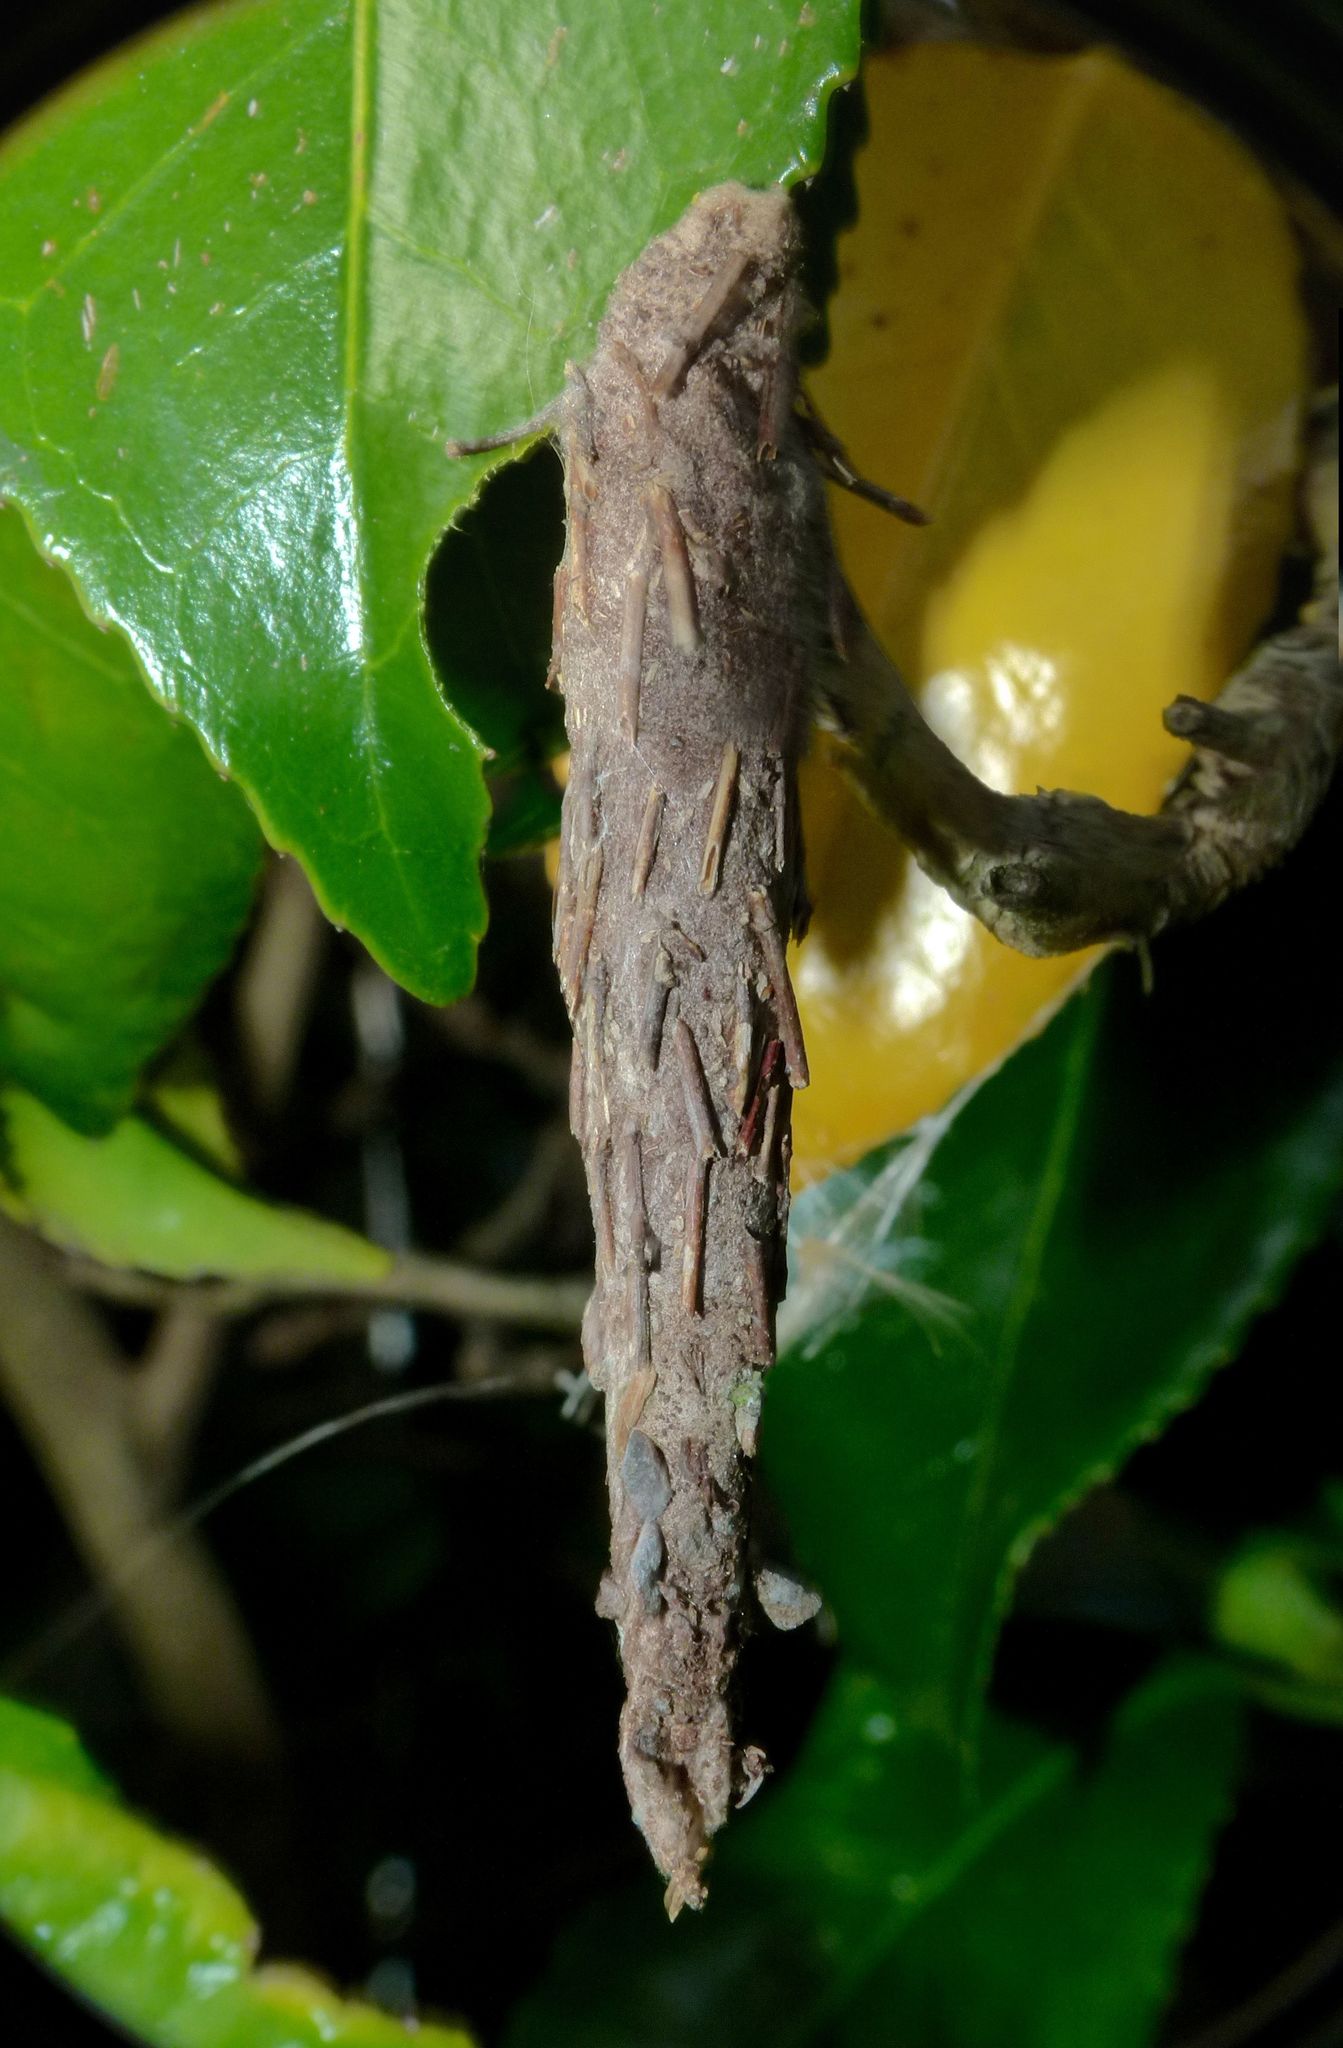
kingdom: Animalia
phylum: Arthropoda
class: Insecta
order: Lepidoptera
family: Psychidae
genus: Liothula
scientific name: Liothula omnivora
